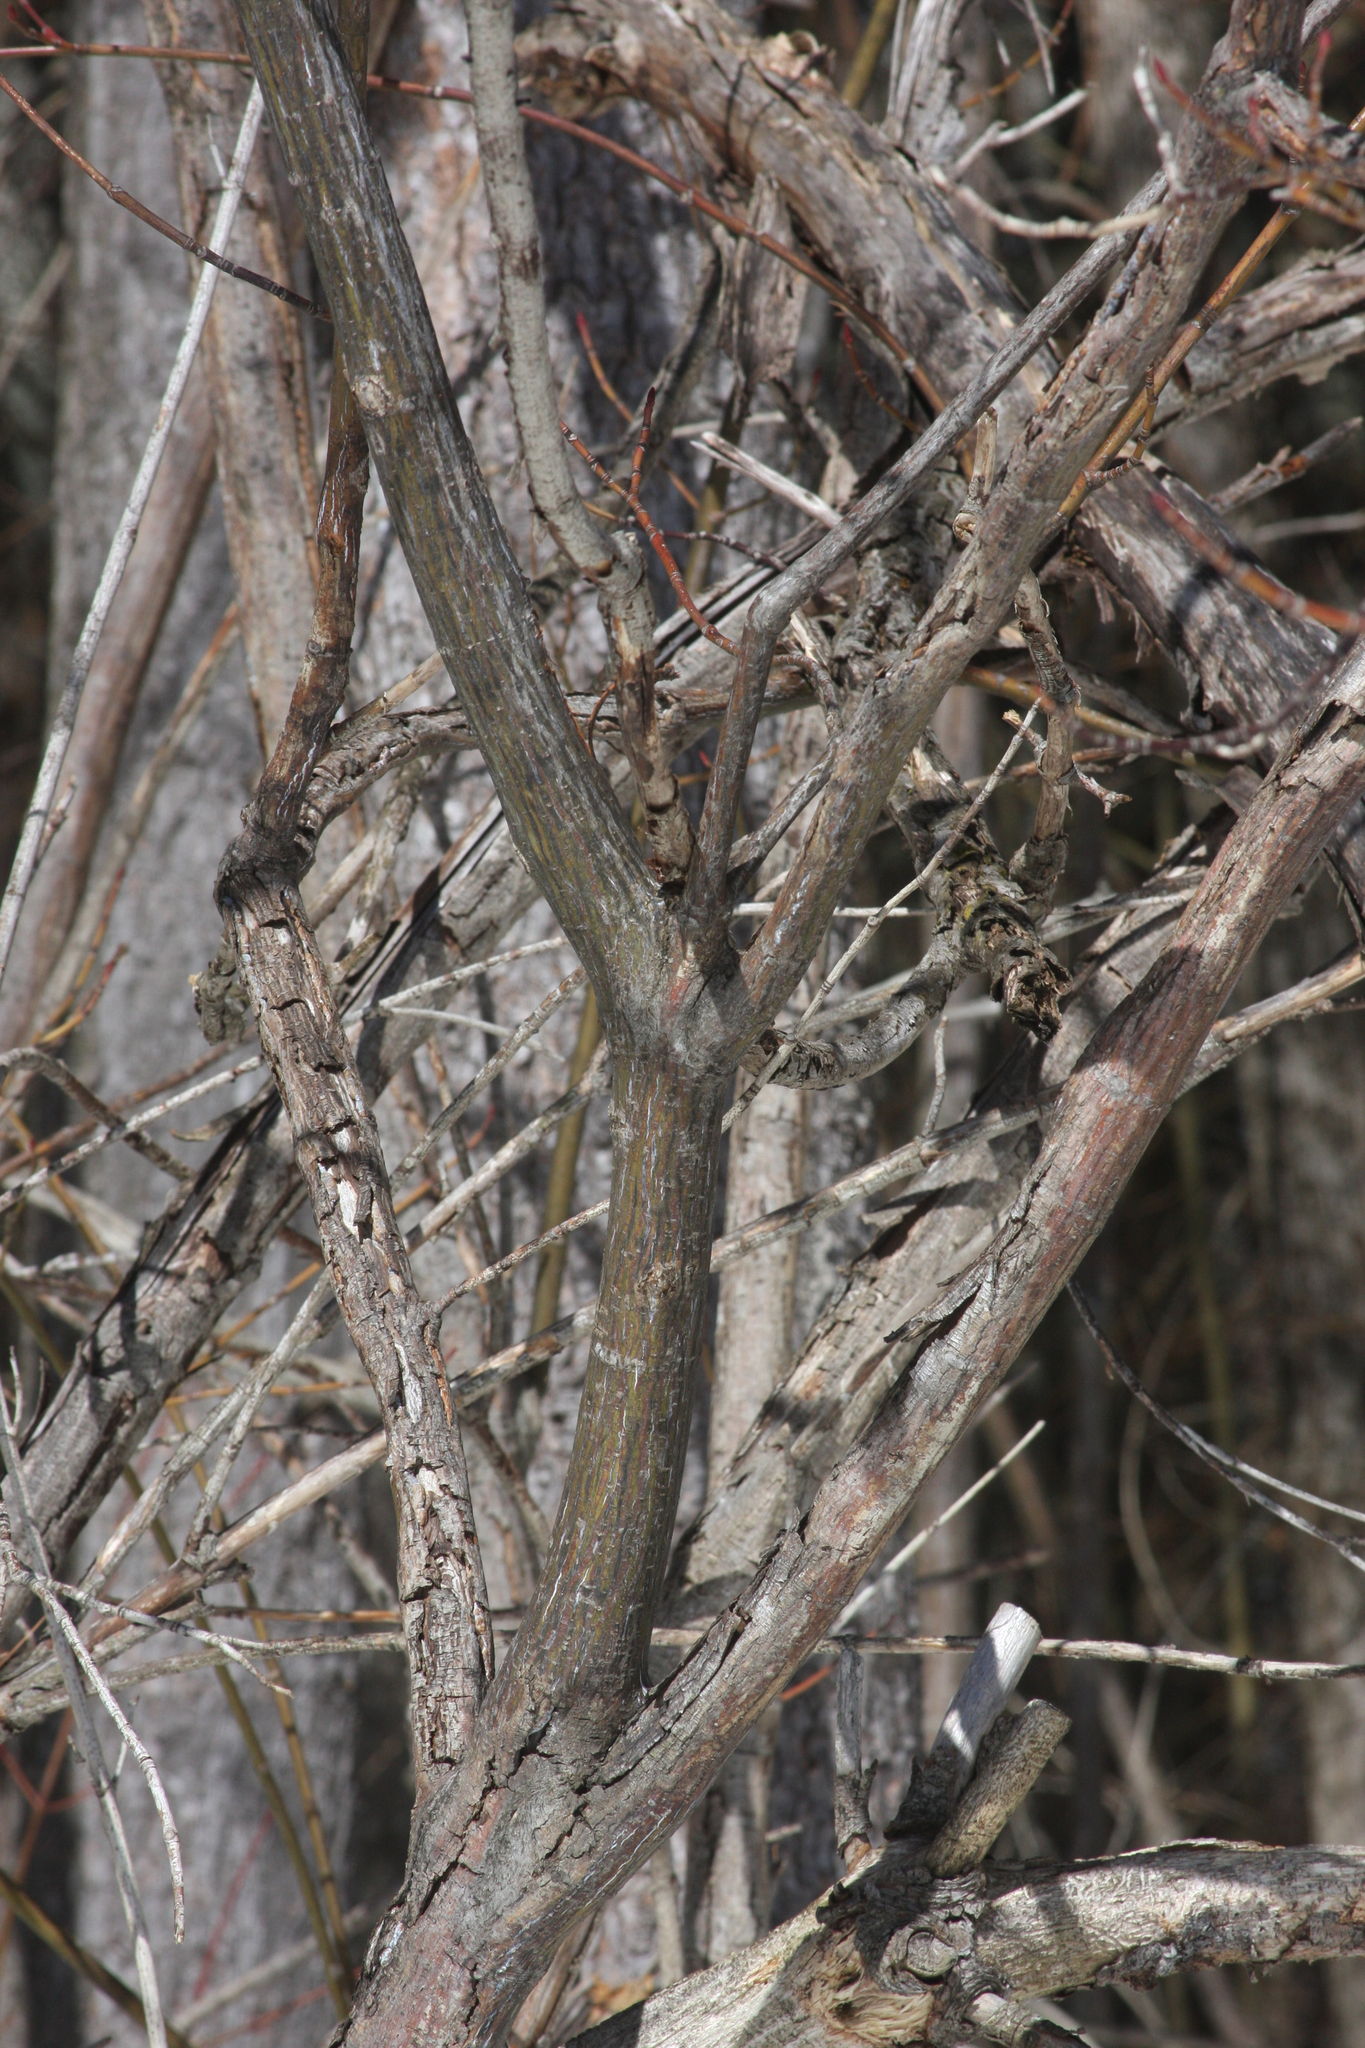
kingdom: Plantae
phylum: Tracheophyta
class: Magnoliopsida
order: Sapindales
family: Sapindaceae
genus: Acer
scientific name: Acer pensylvanicum
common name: Moosewood
